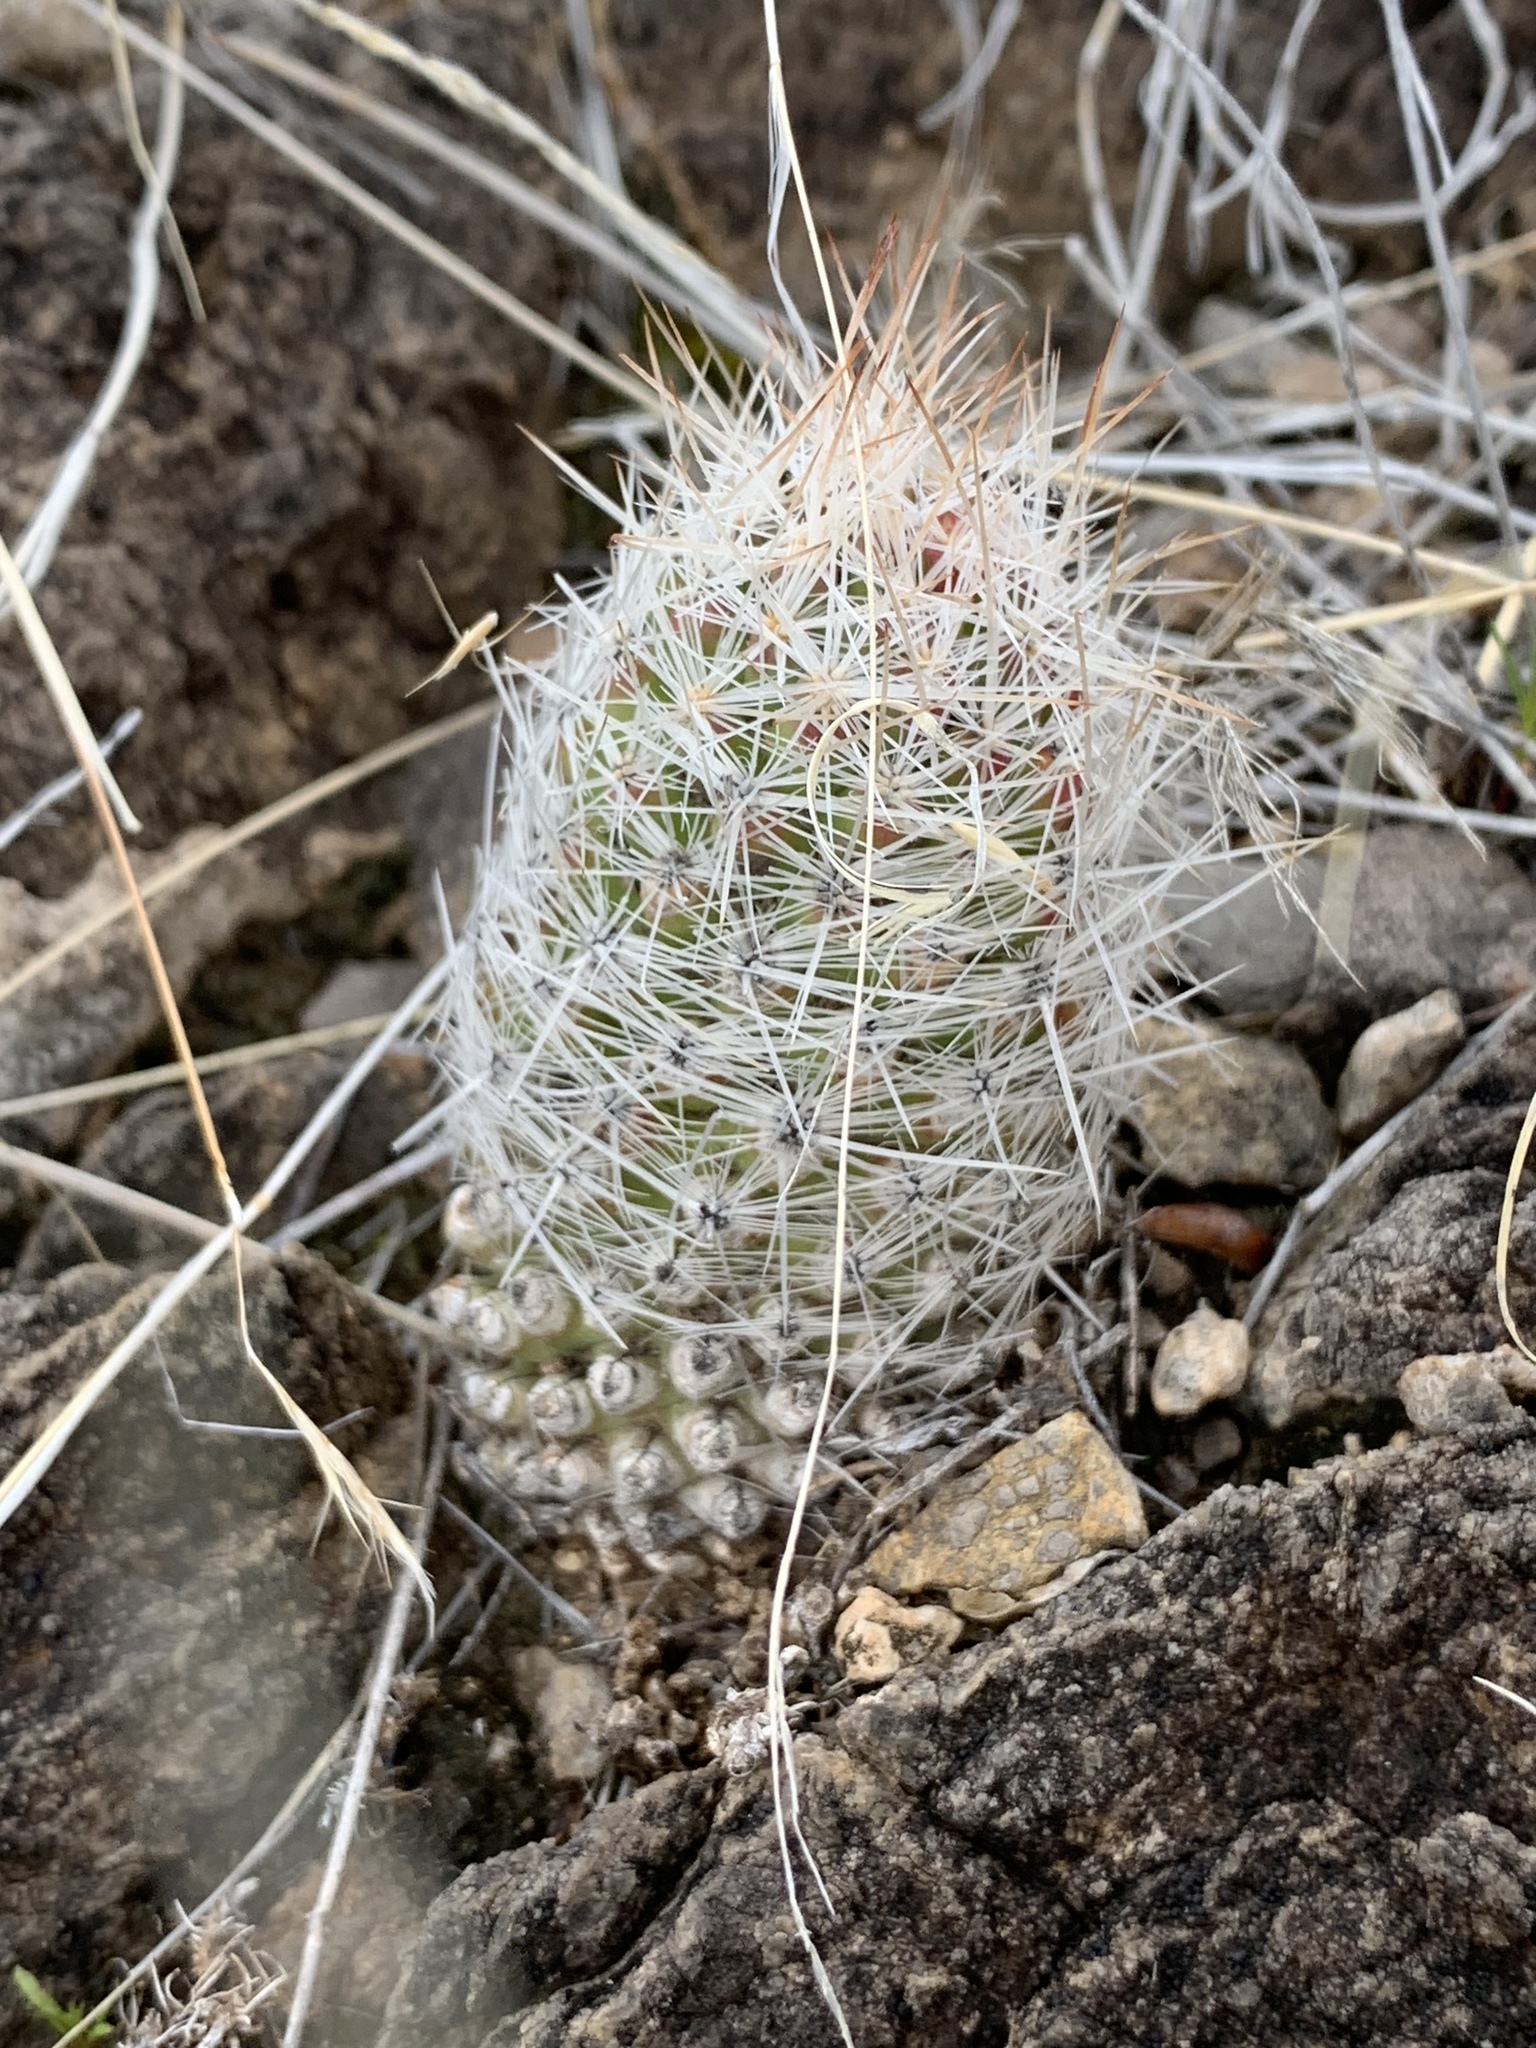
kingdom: Plantae
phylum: Tracheophyta
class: Magnoliopsida
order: Caryophyllales
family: Cactaceae
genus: Pelecyphora
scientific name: Pelecyphora tuberculosa
